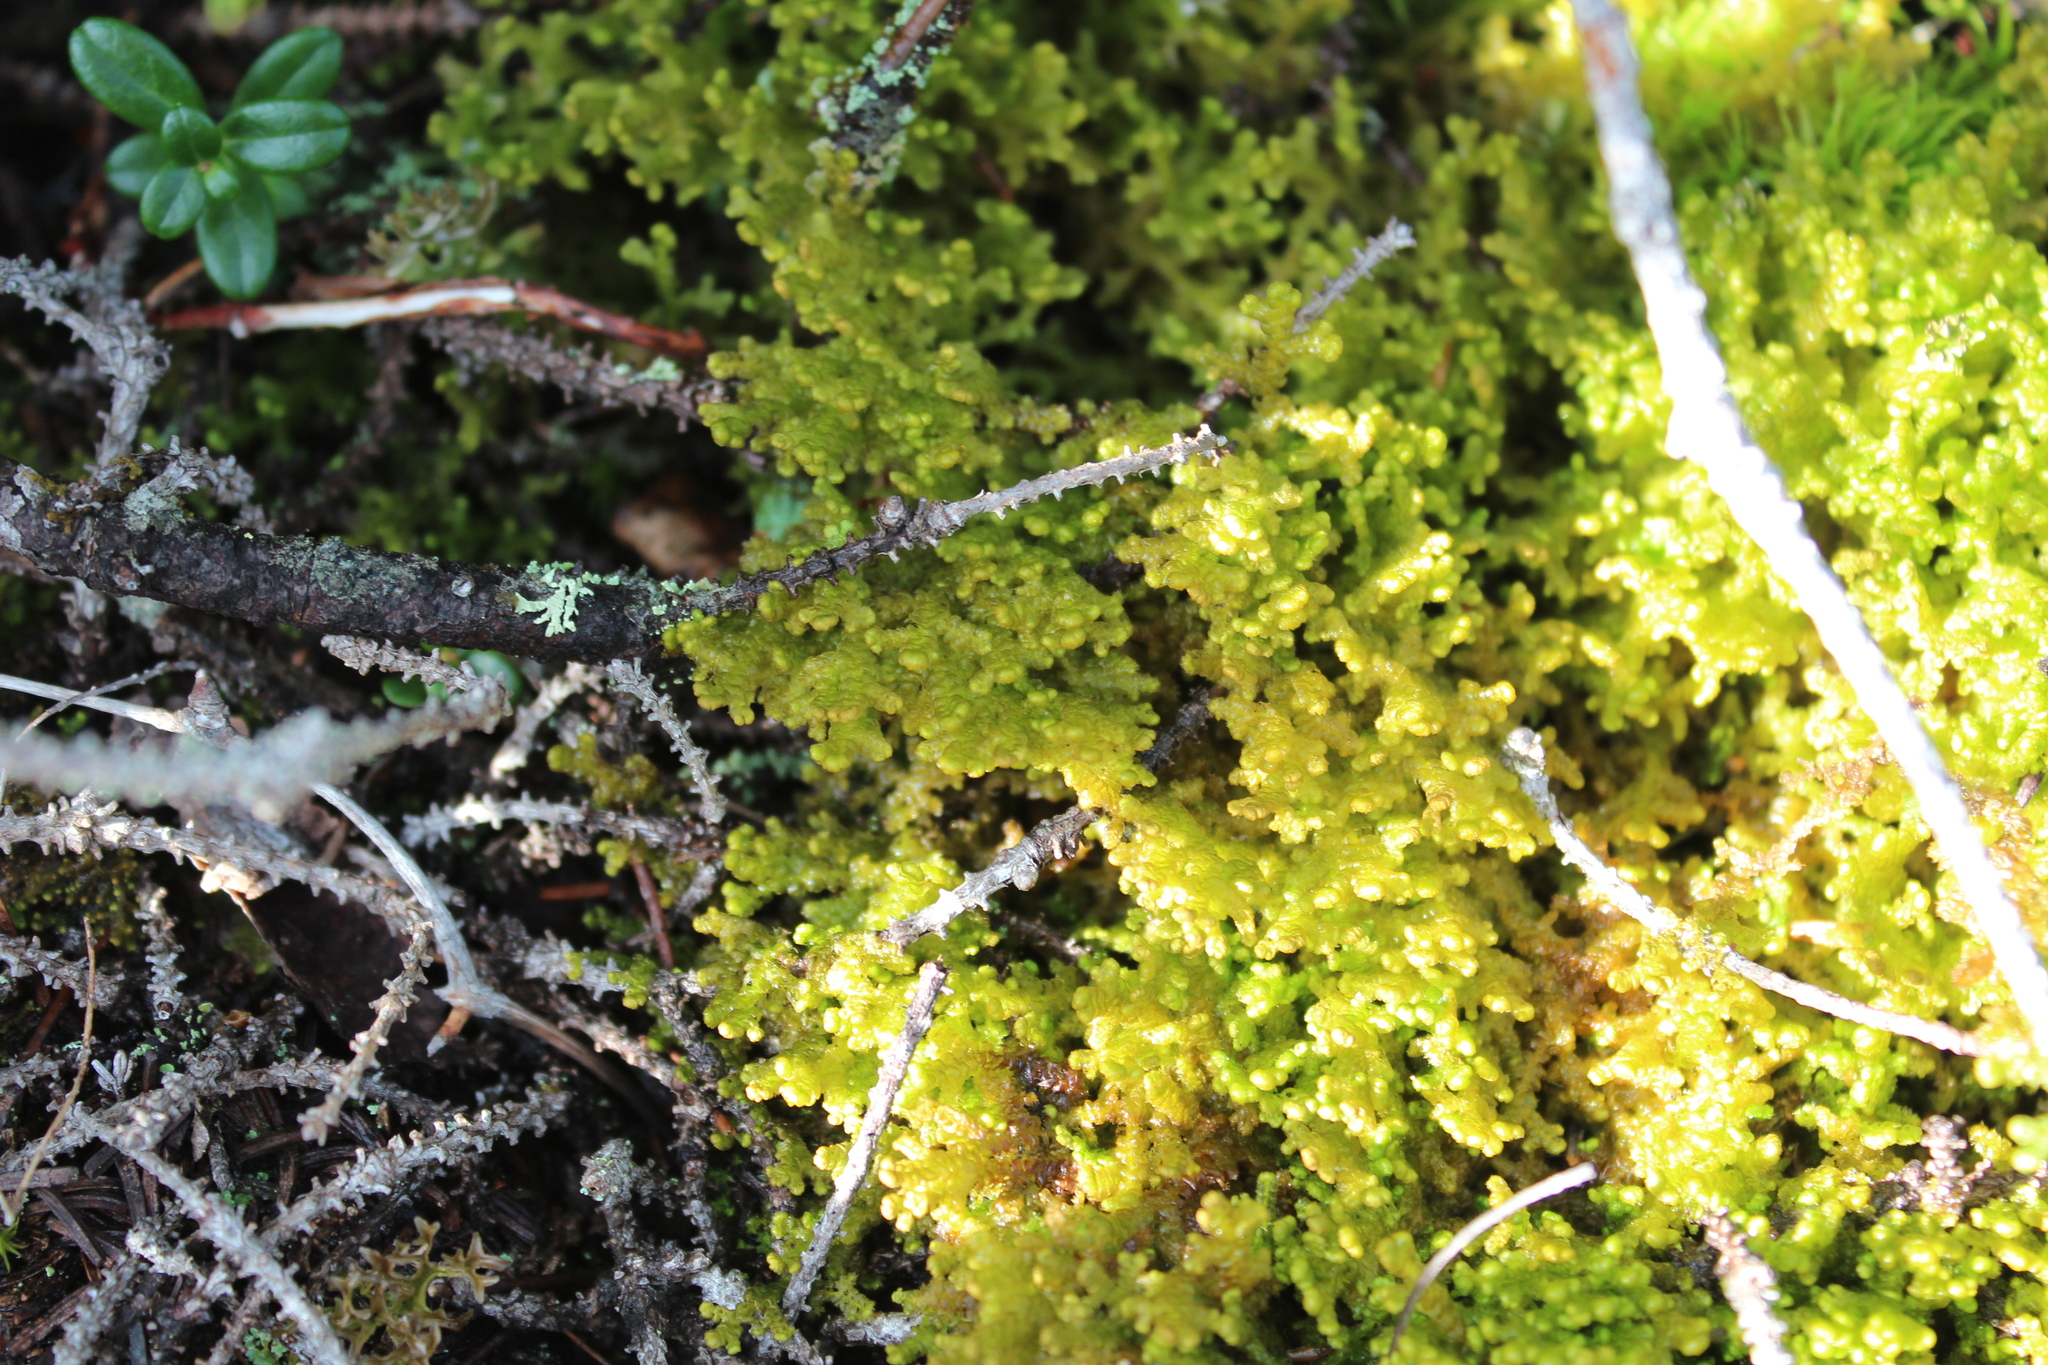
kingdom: Plantae
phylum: Marchantiophyta
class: Jungermanniopsida
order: Ptilidiales
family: Ptilidiaceae
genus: Ptilidium
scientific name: Ptilidium ciliare
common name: Ciliate fringewort
